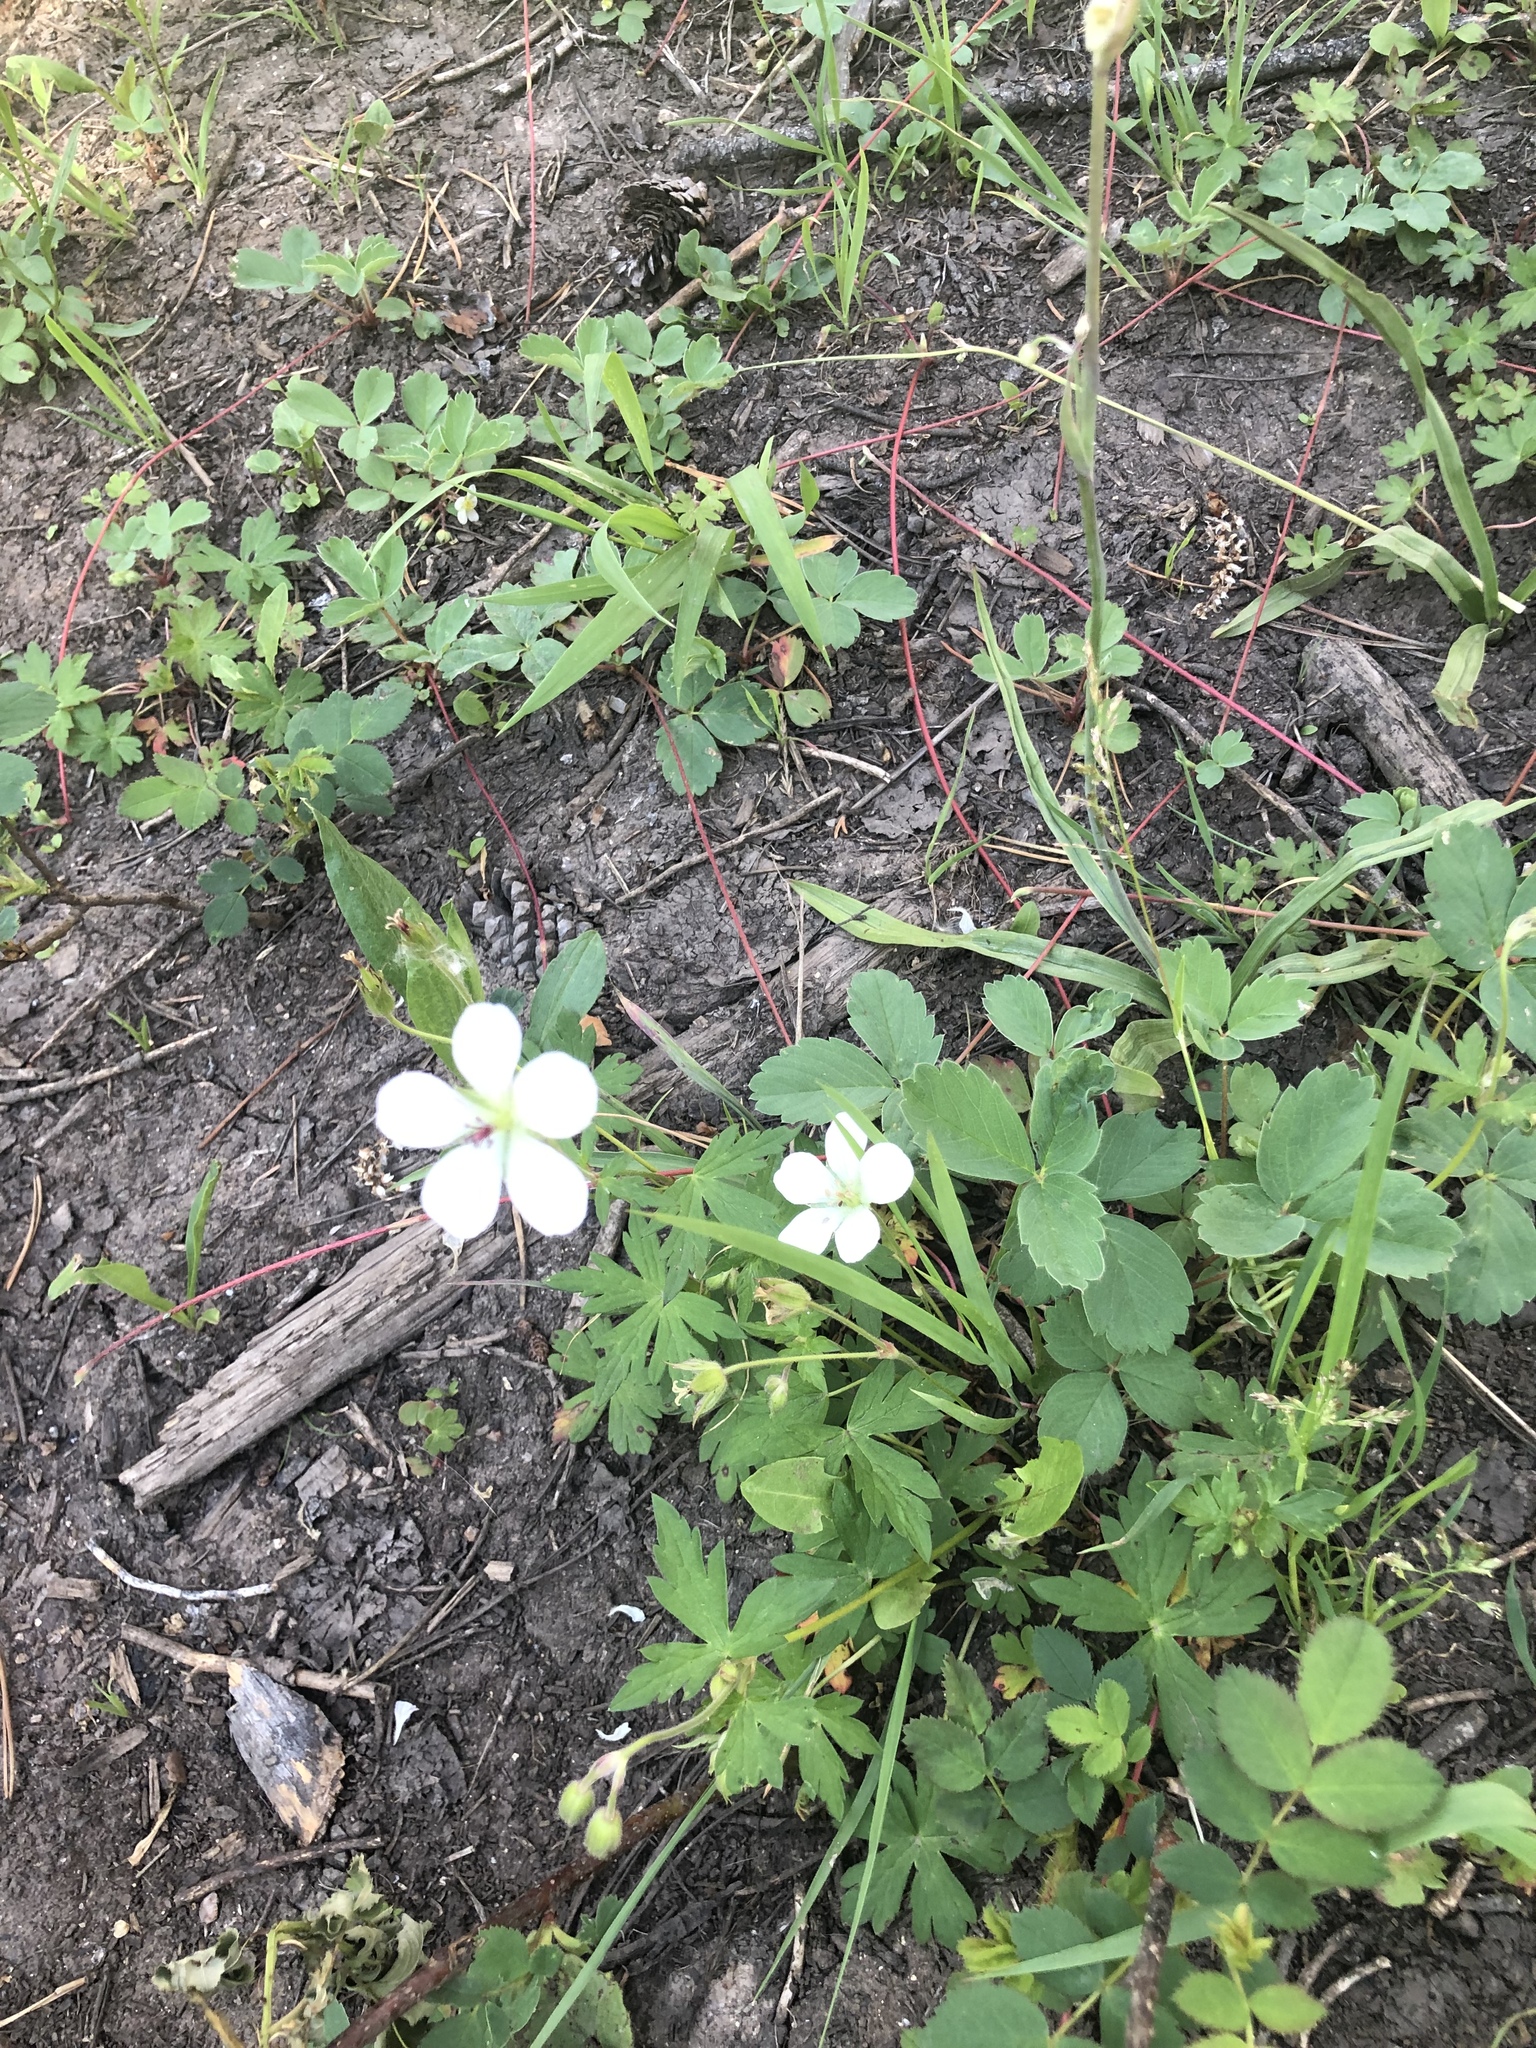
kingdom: Plantae
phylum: Tracheophyta
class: Magnoliopsida
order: Geraniales
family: Geraniaceae
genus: Geranium
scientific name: Geranium richardsonii
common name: Richardson's crane's-bill
